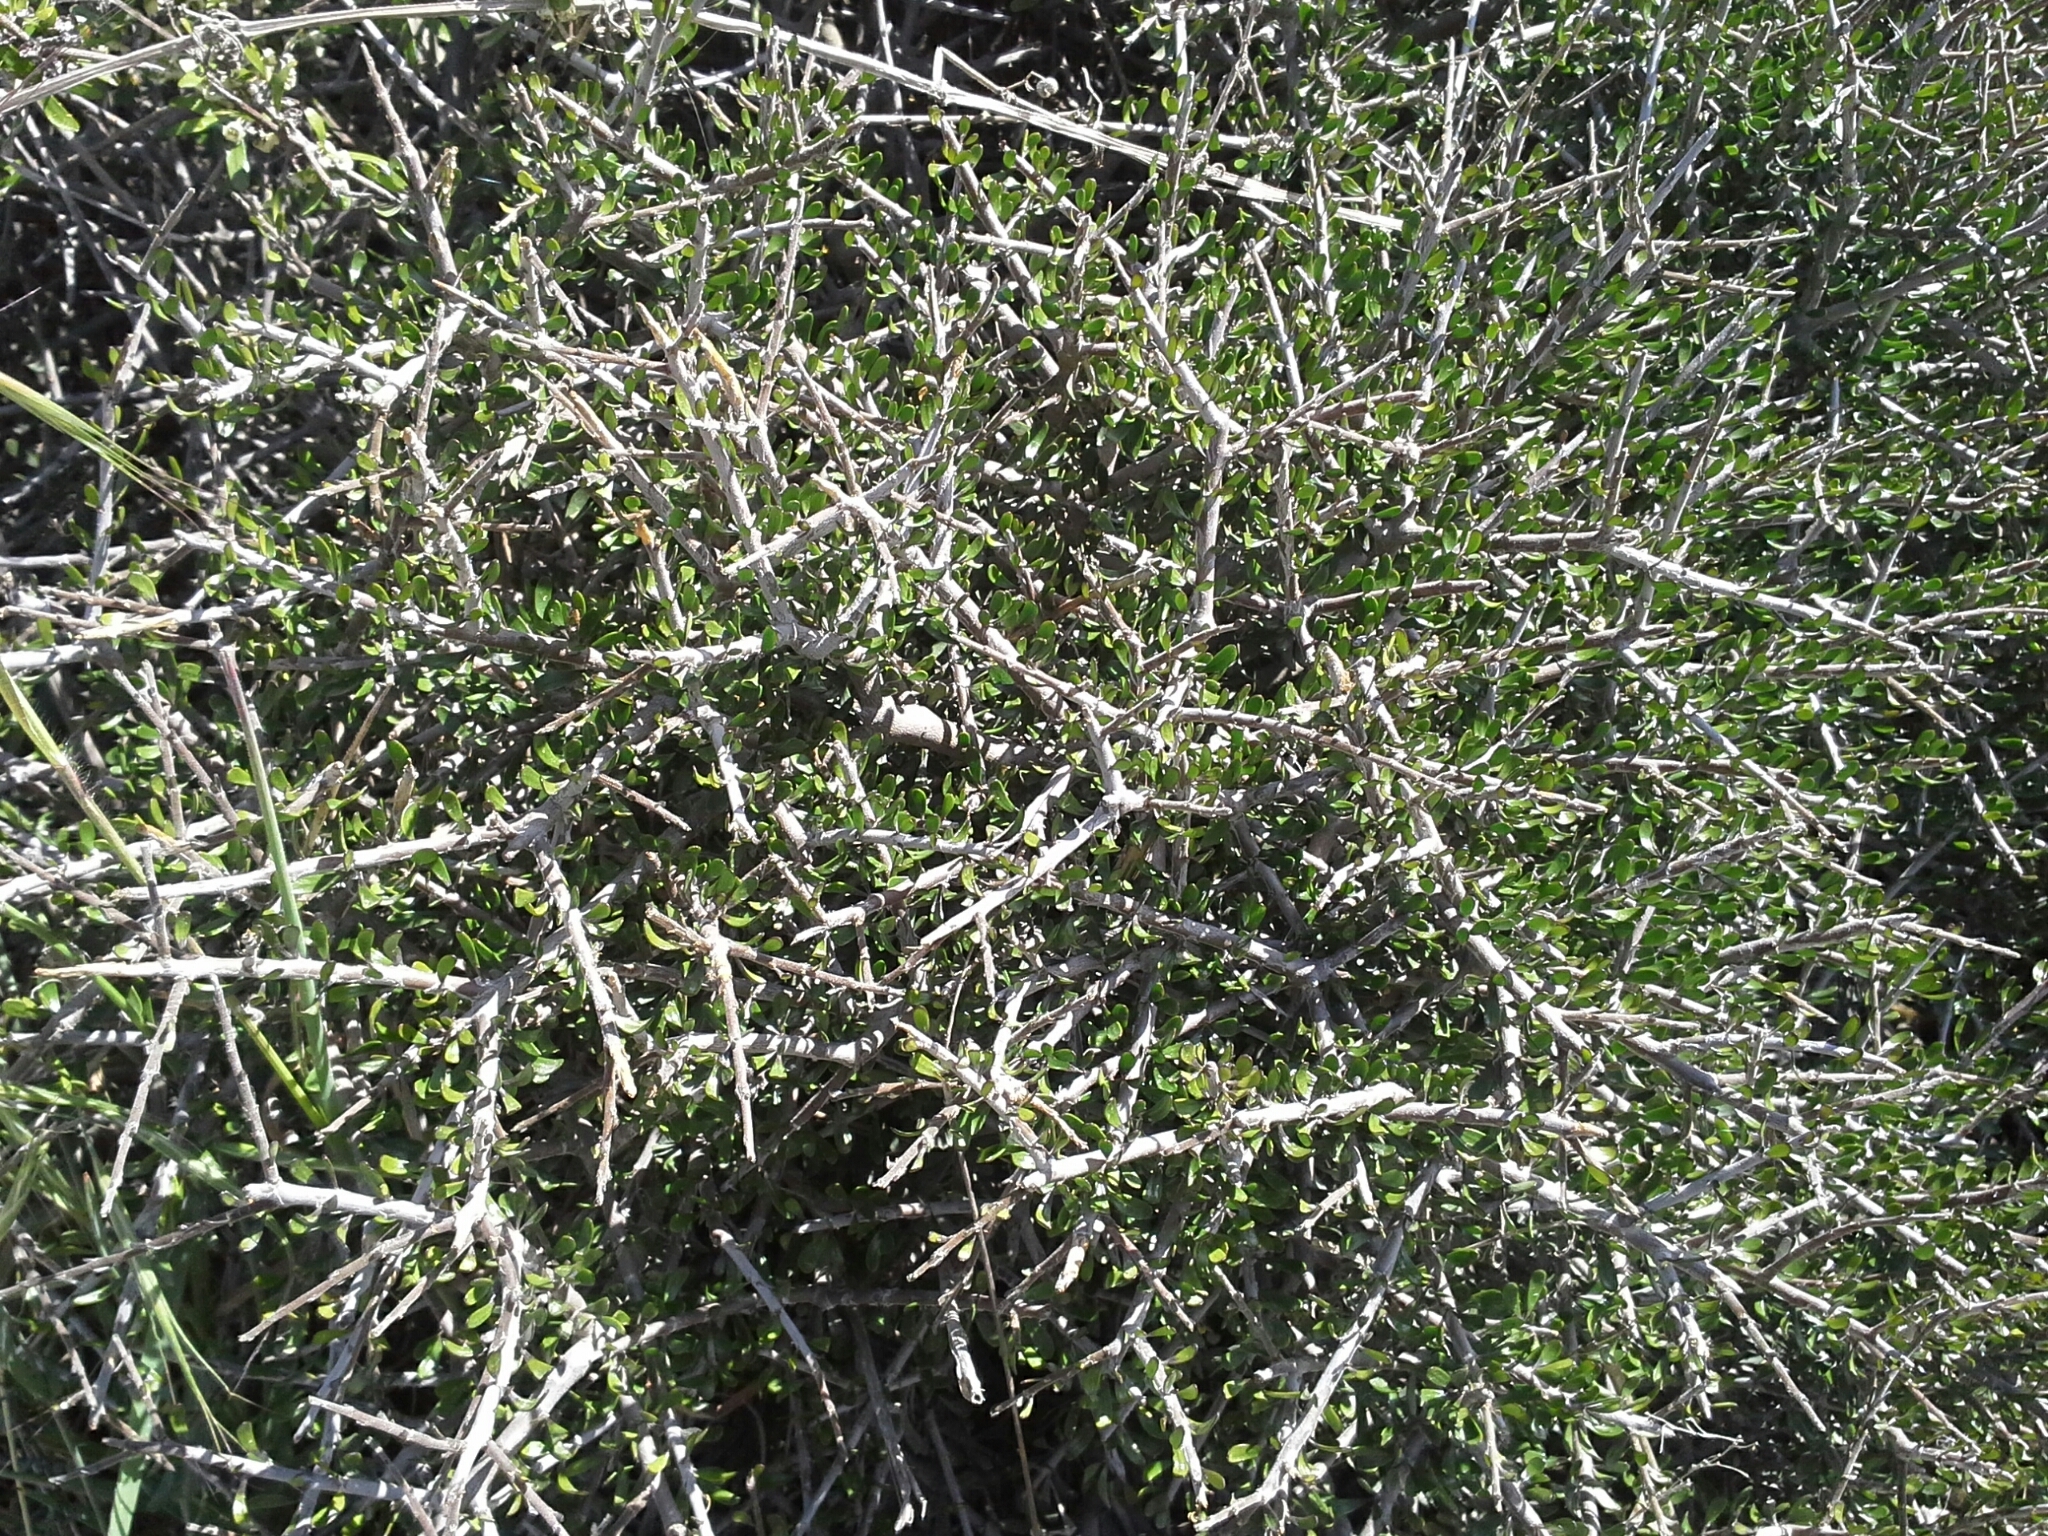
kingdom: Plantae
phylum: Tracheophyta
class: Magnoliopsida
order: Malpighiales
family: Violaceae
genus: Melicytus
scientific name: Melicytus alpinus
